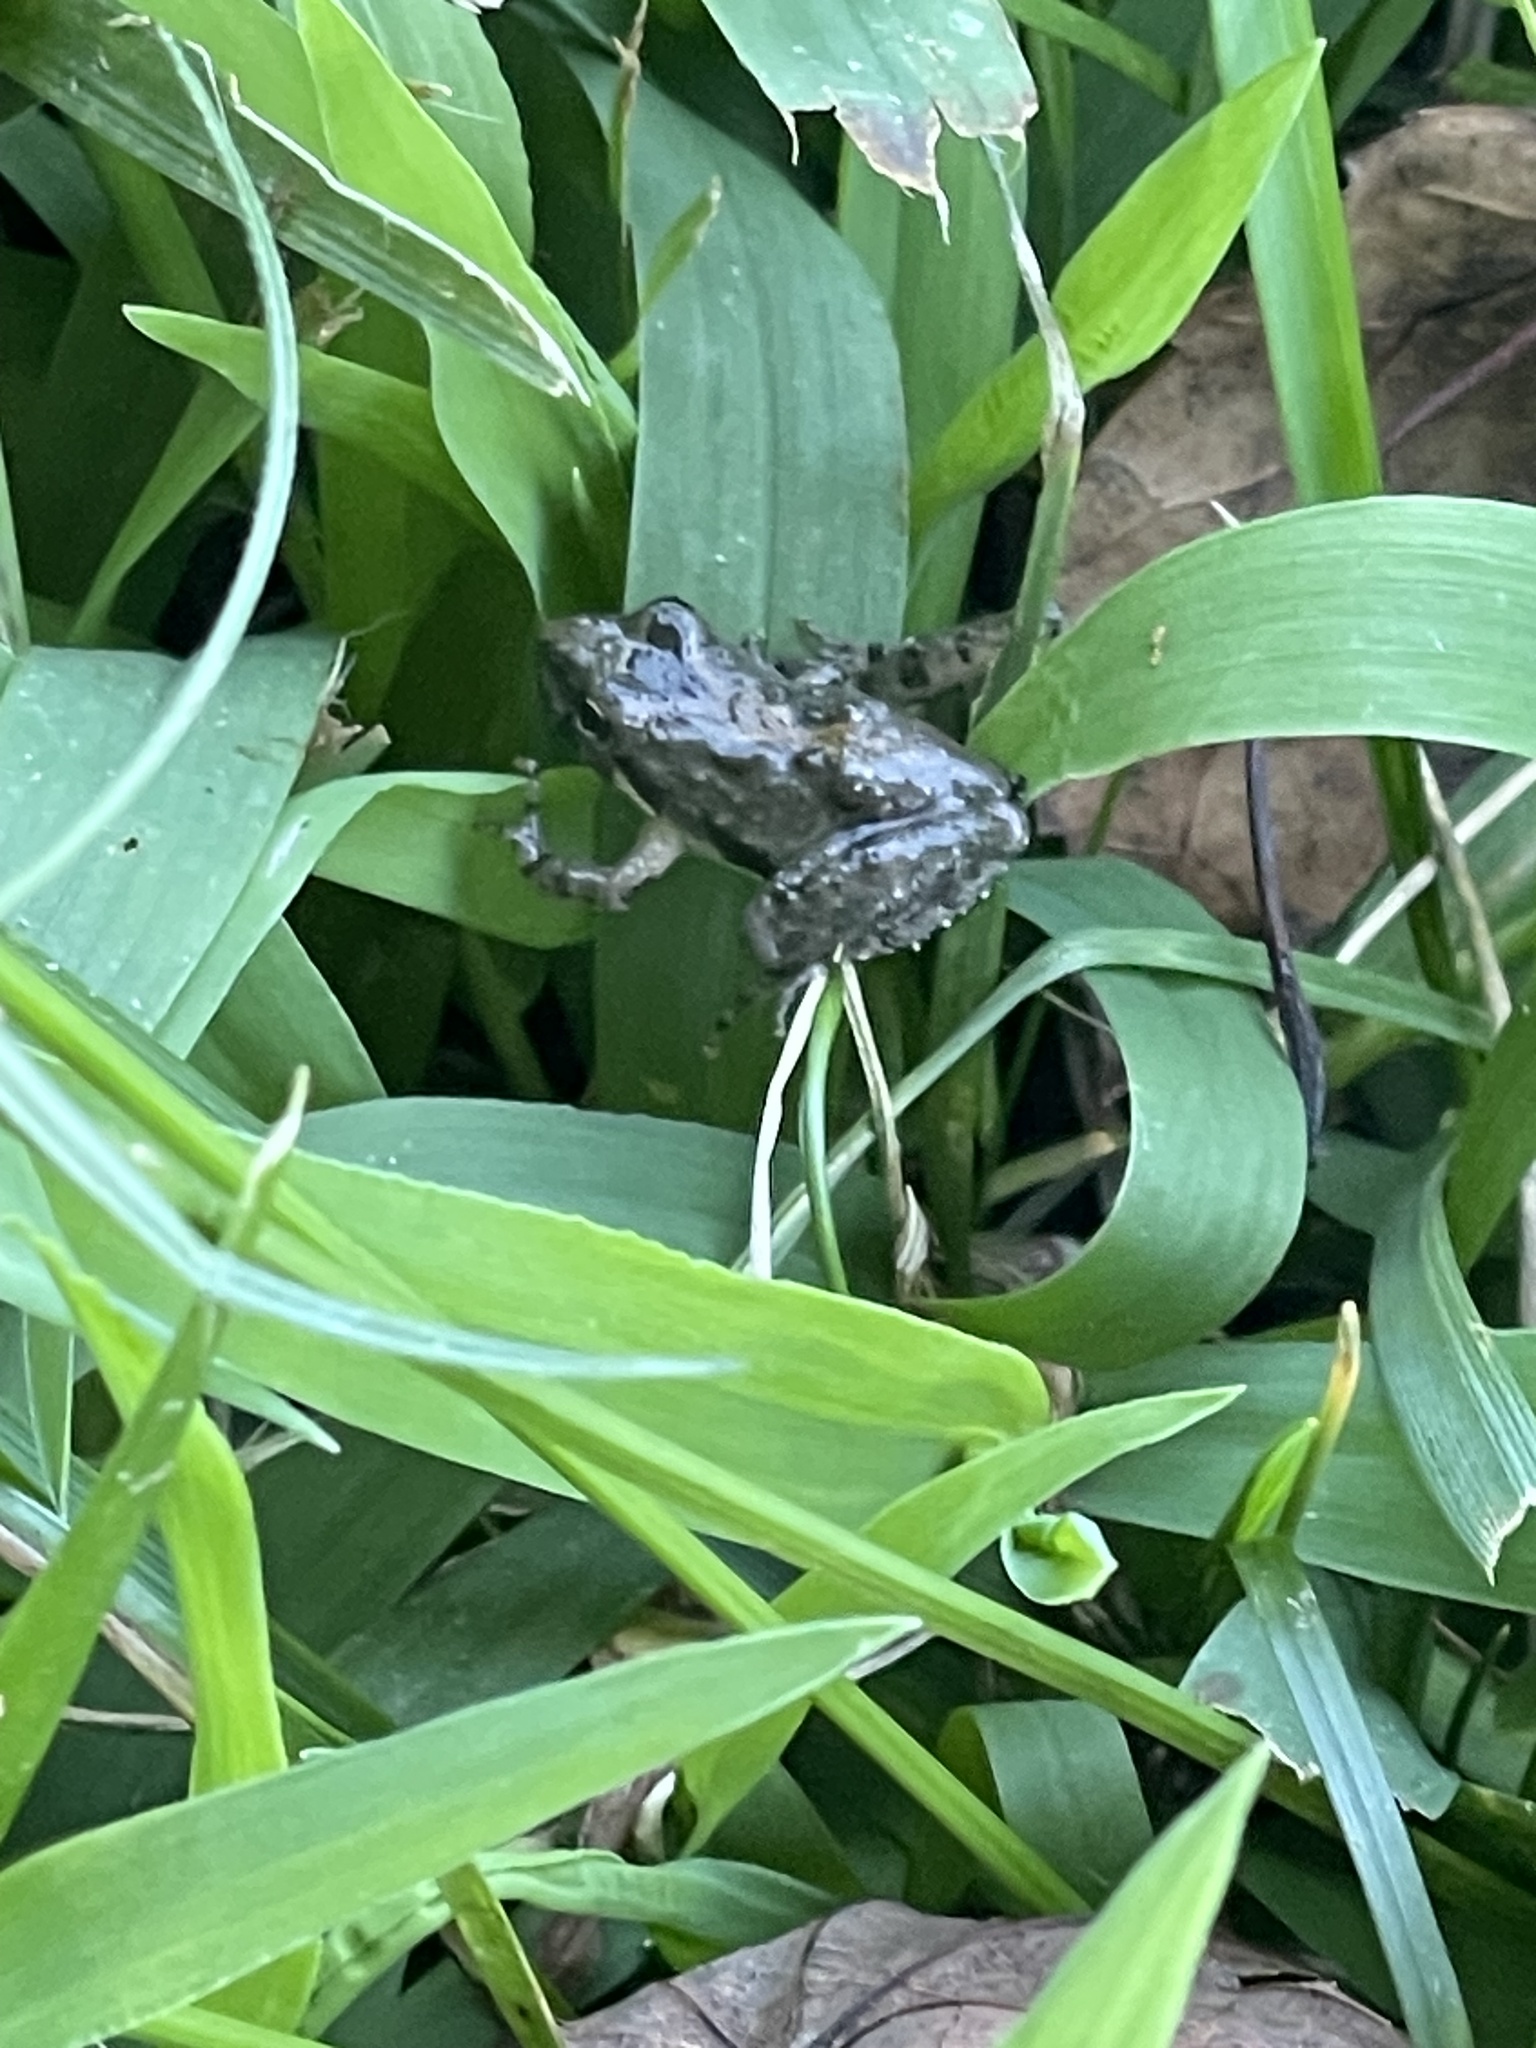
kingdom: Animalia
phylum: Chordata
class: Amphibia
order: Anura
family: Hylidae
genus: Acris
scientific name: Acris crepitans
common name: Northern cricket frog
